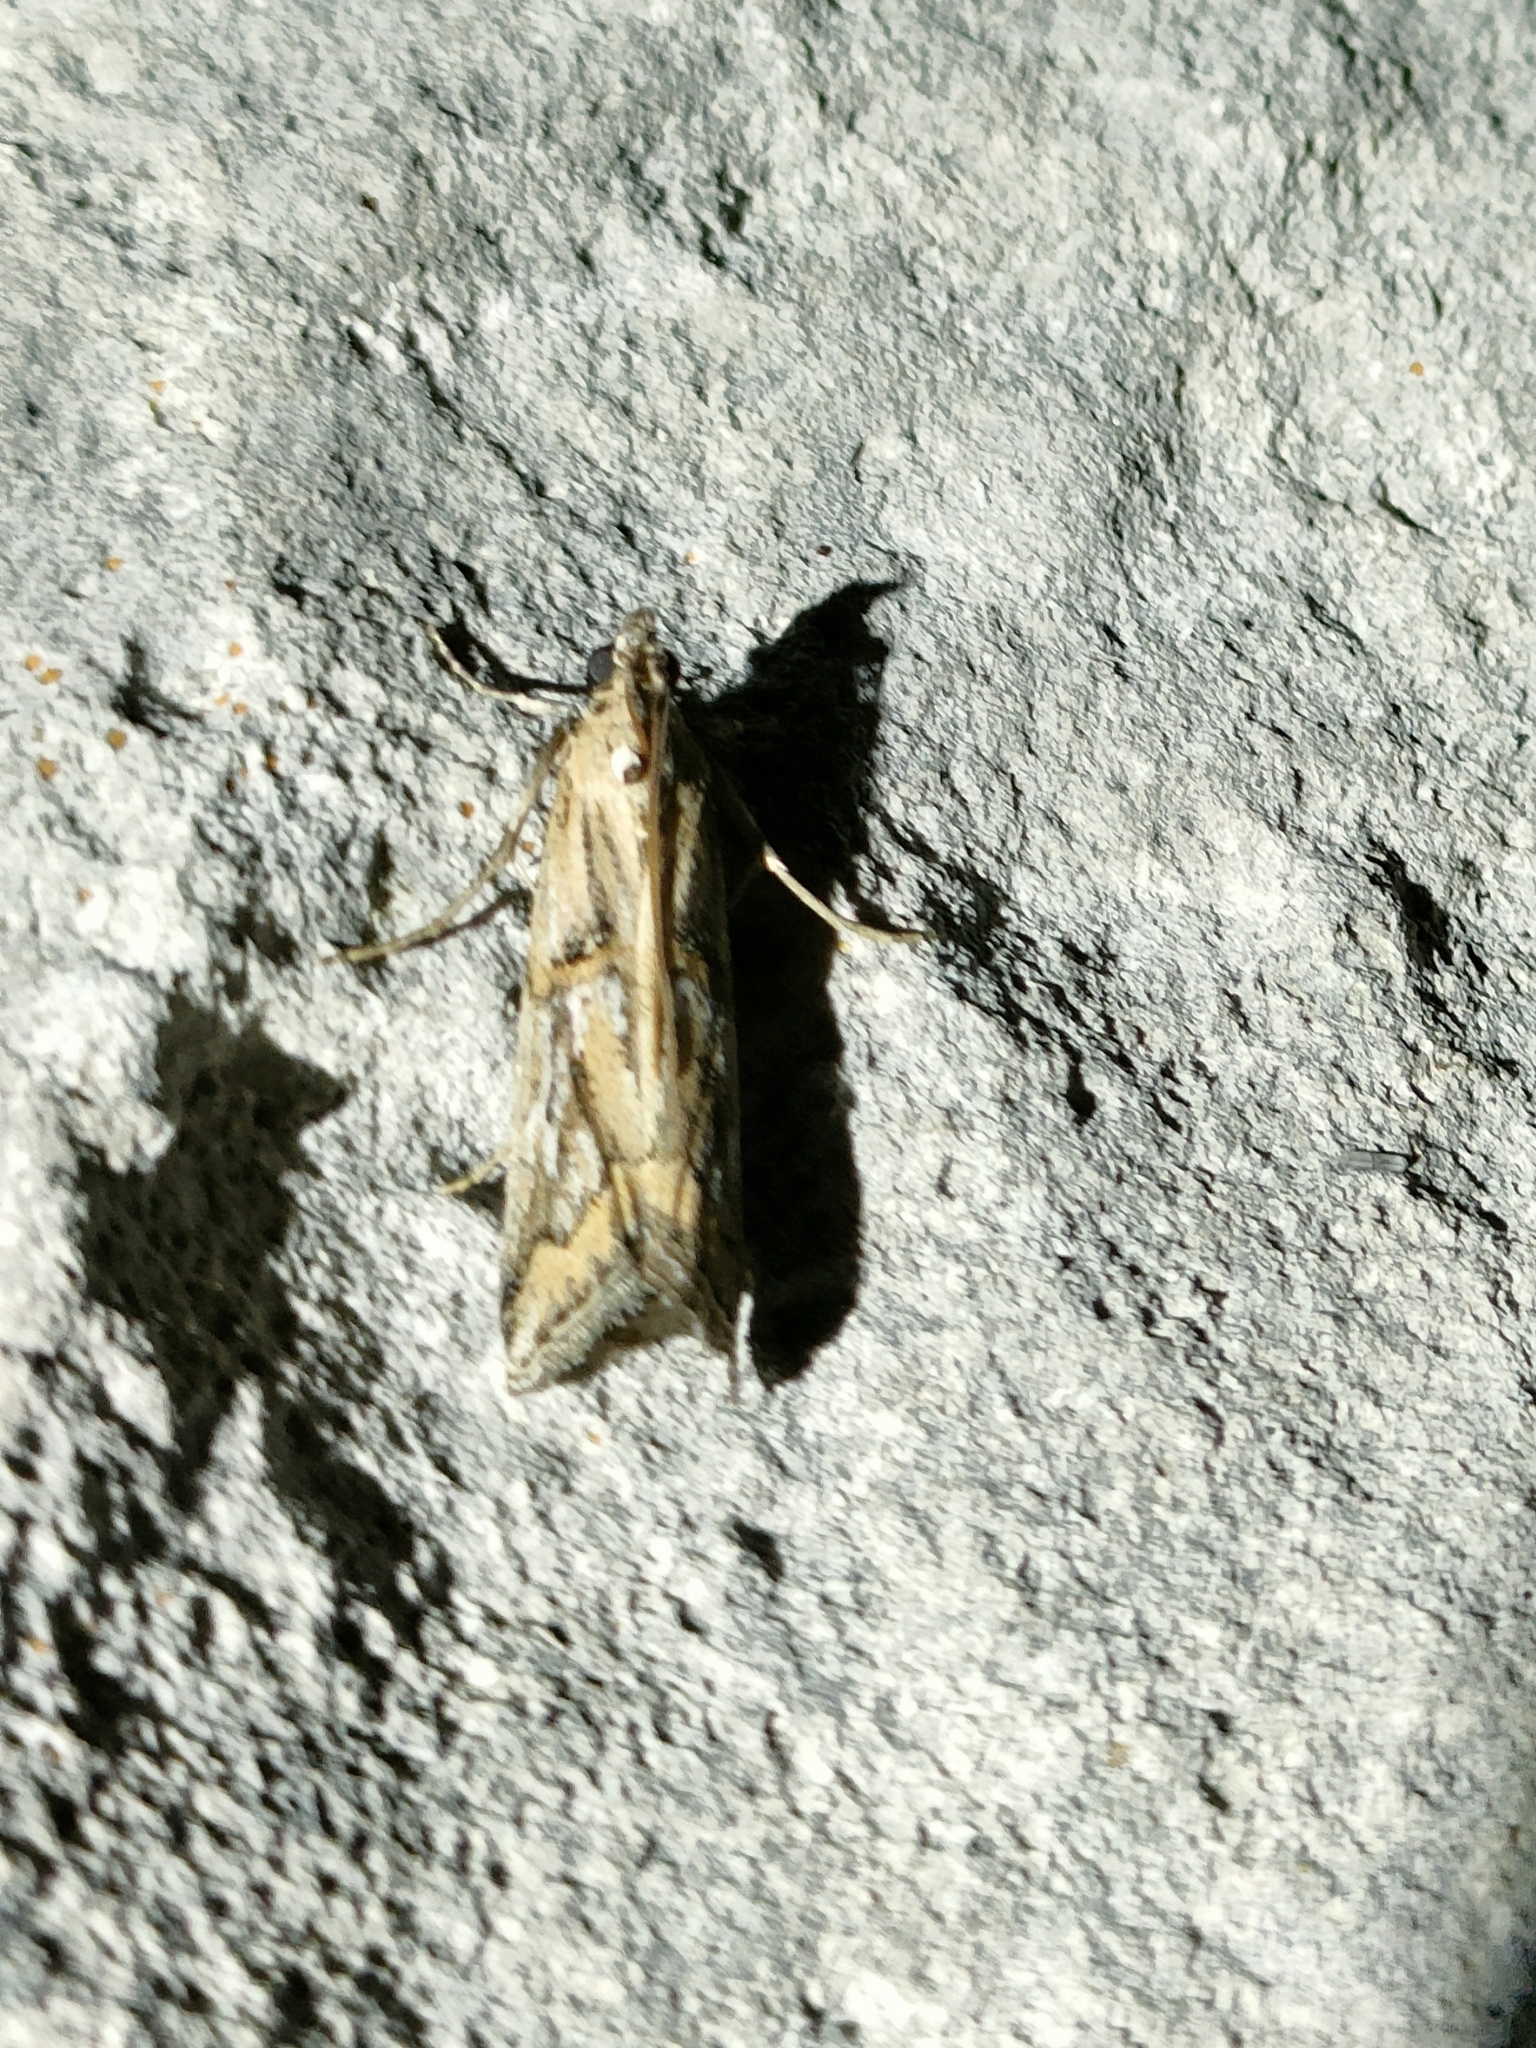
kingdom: Animalia
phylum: Arthropoda
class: Insecta
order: Lepidoptera
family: Pyralidae
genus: Pempelia
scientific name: Pempelia genistella
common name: Gorse knot-horn
